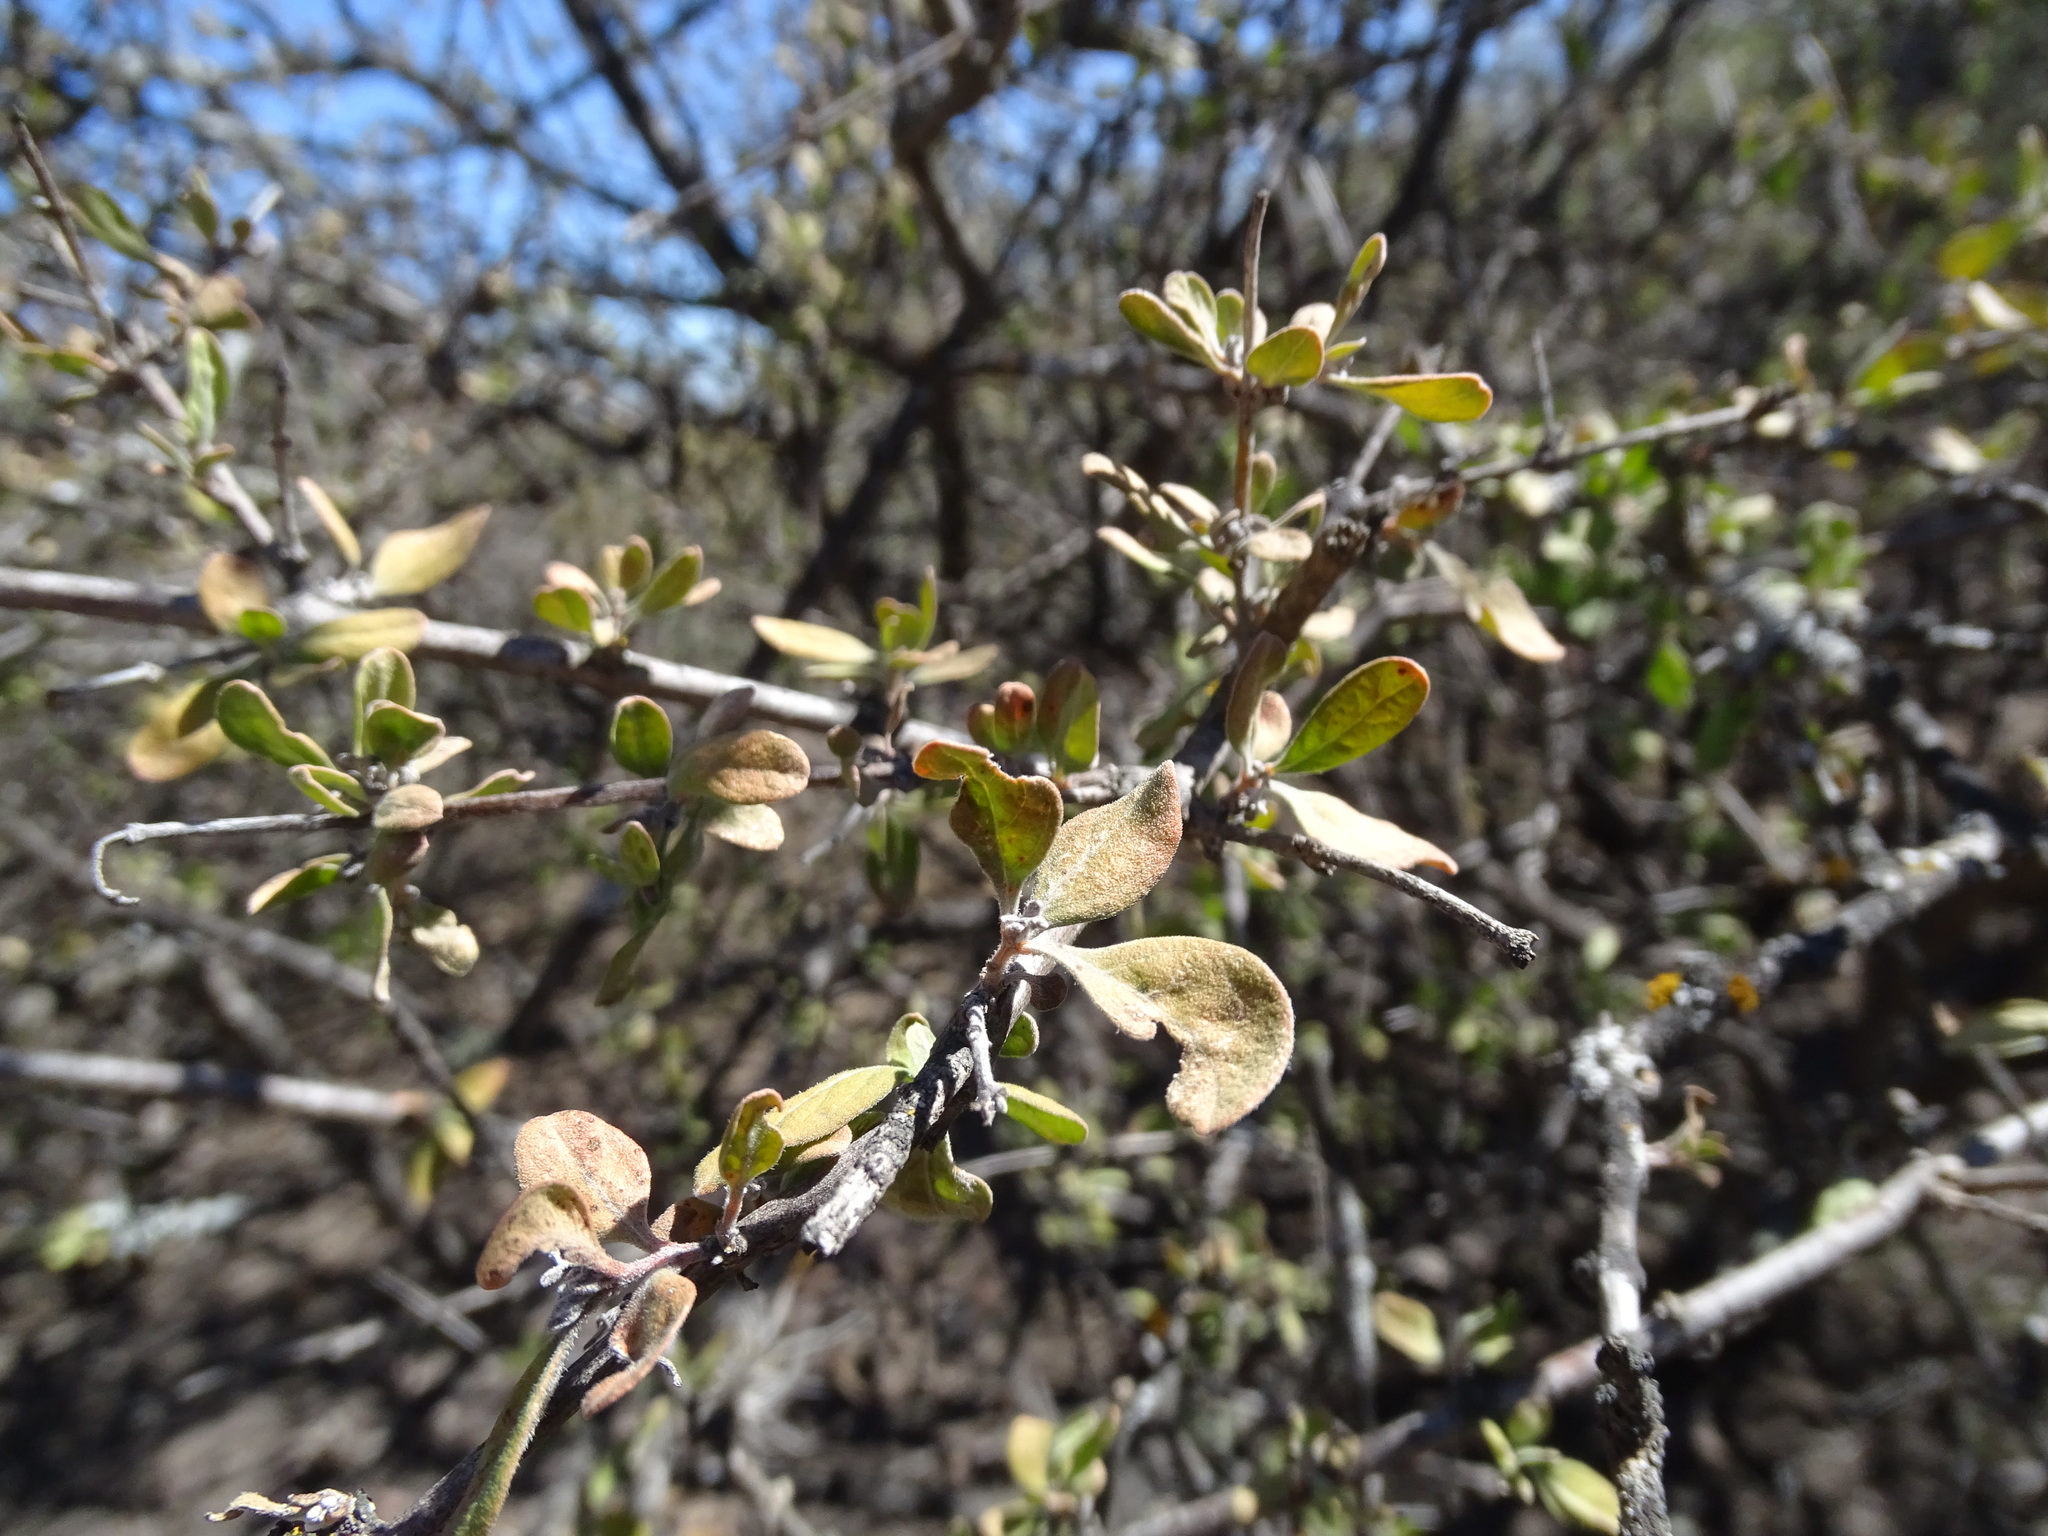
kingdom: Plantae
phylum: Tracheophyta
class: Magnoliopsida
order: Lamiales
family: Verbenaceae
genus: Citharexylum
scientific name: Citharexylum racemosum
